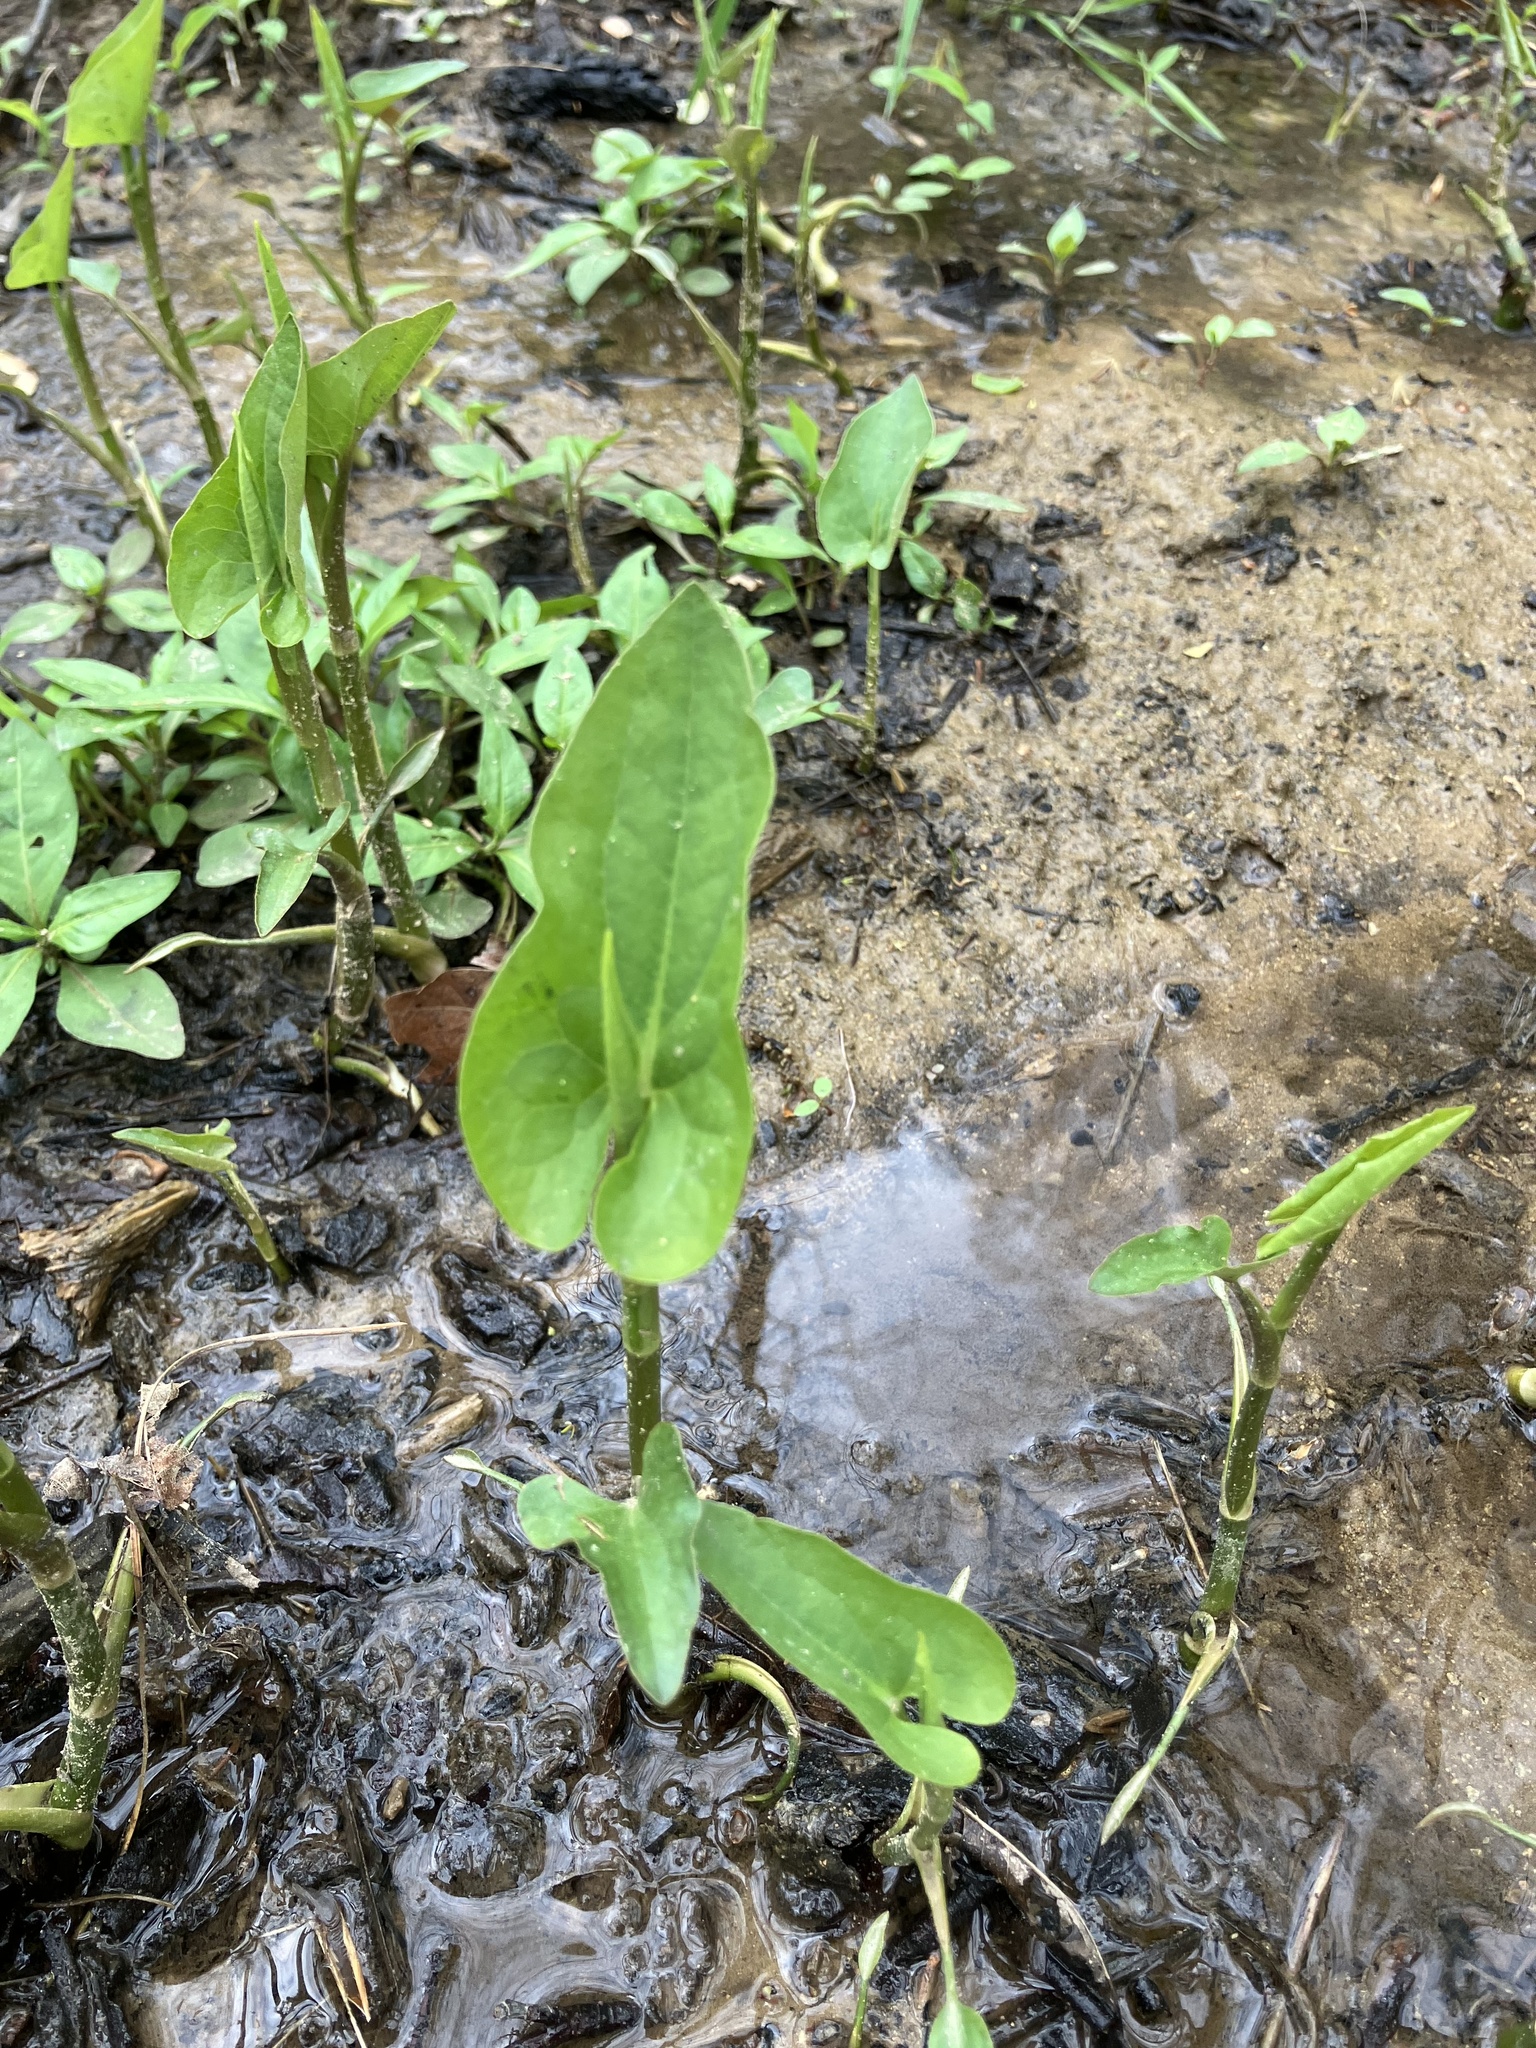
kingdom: Plantae
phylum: Tracheophyta
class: Magnoliopsida
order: Piperales
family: Saururaceae
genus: Saururus
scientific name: Saururus cernuus
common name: Lizard's-tail
